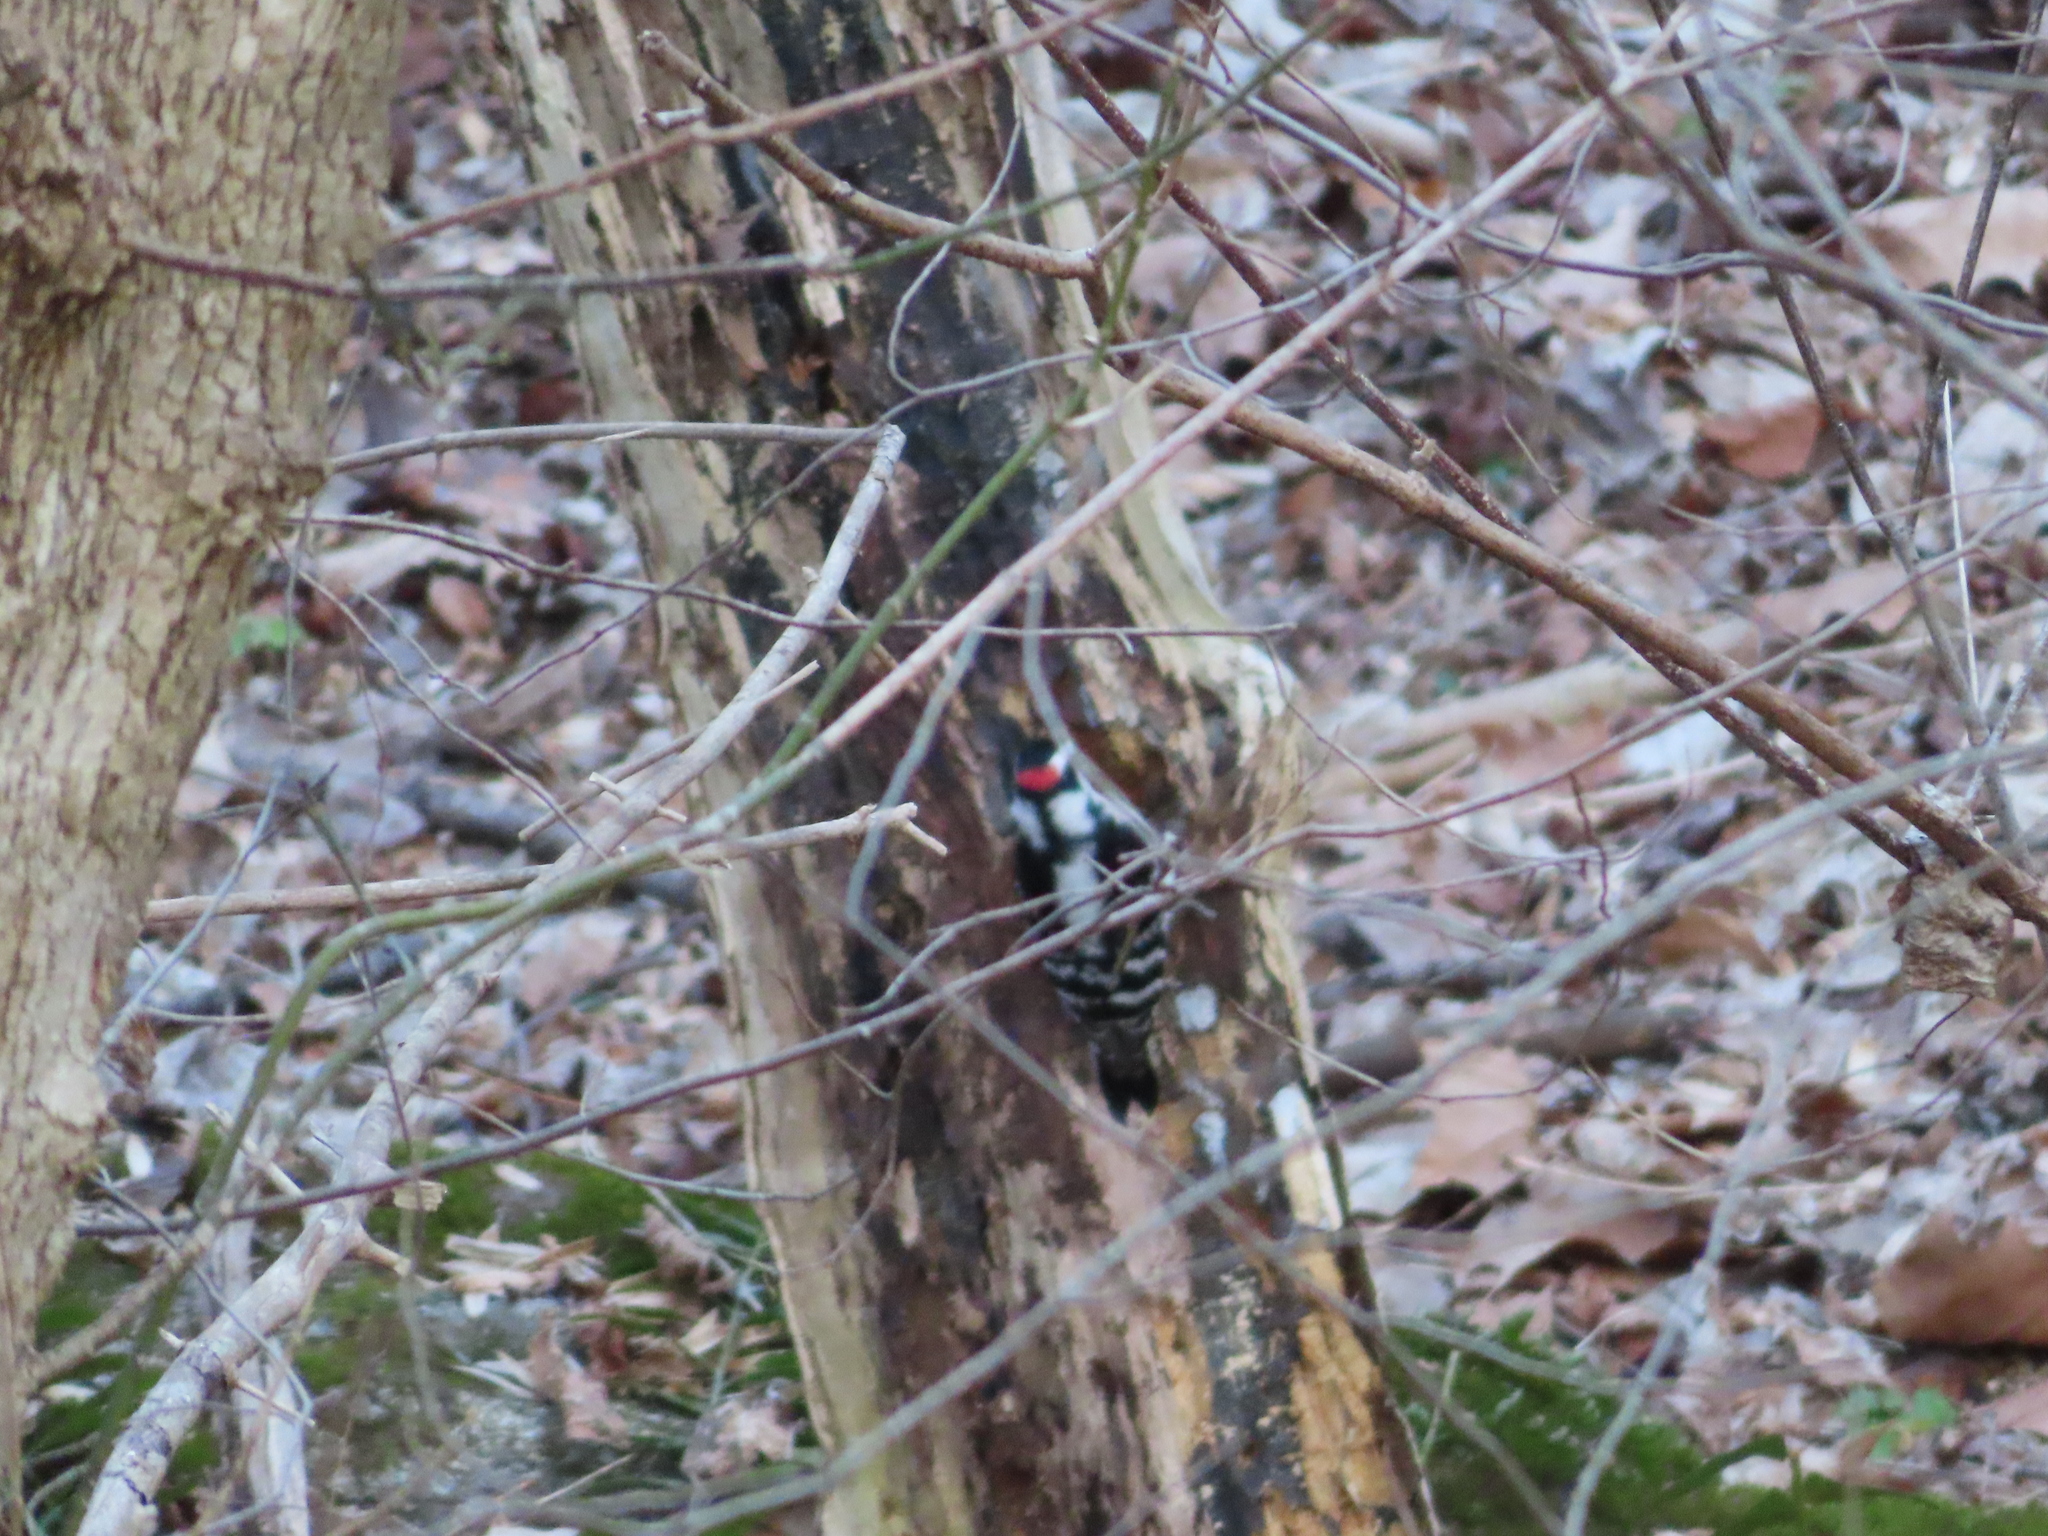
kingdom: Animalia
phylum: Chordata
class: Aves
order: Piciformes
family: Picidae
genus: Dryobates
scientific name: Dryobates pubescens
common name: Downy woodpecker
